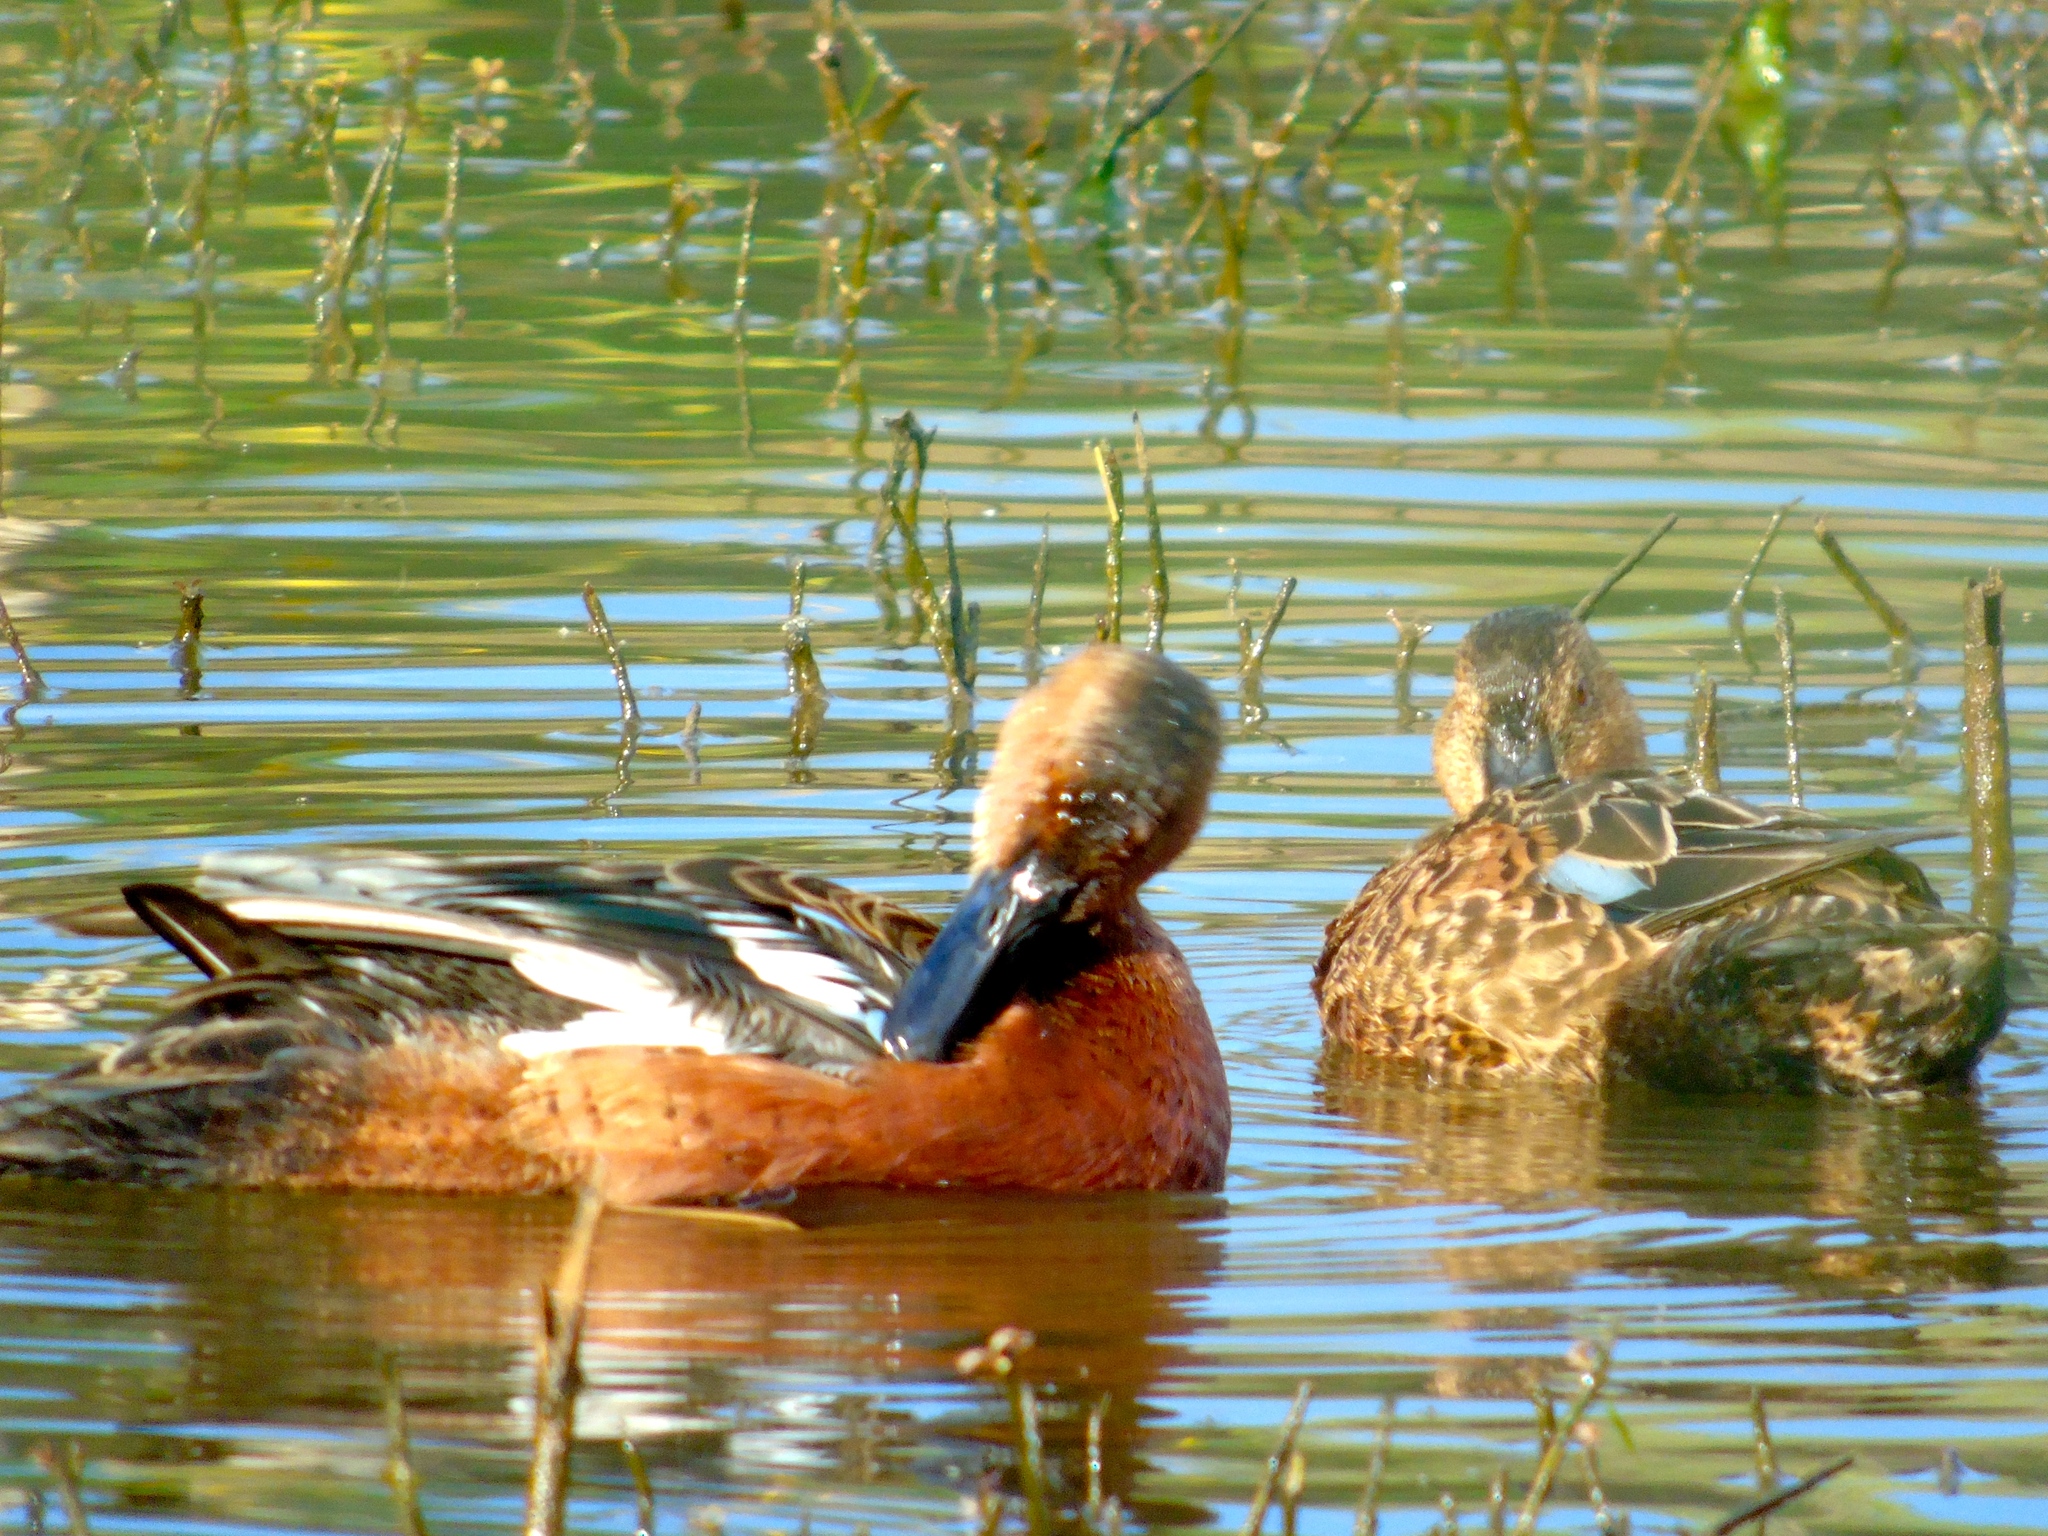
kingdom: Animalia
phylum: Chordata
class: Aves
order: Anseriformes
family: Anatidae
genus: Spatula
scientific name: Spatula cyanoptera
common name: Cinnamon teal
